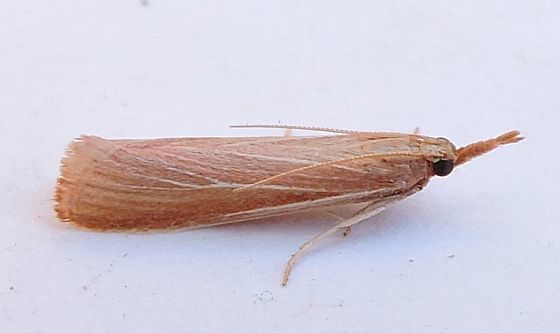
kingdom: Animalia
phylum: Arthropoda
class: Insecta
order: Lepidoptera
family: Pyralidae
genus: Peoria
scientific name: Peoria johnstoni
